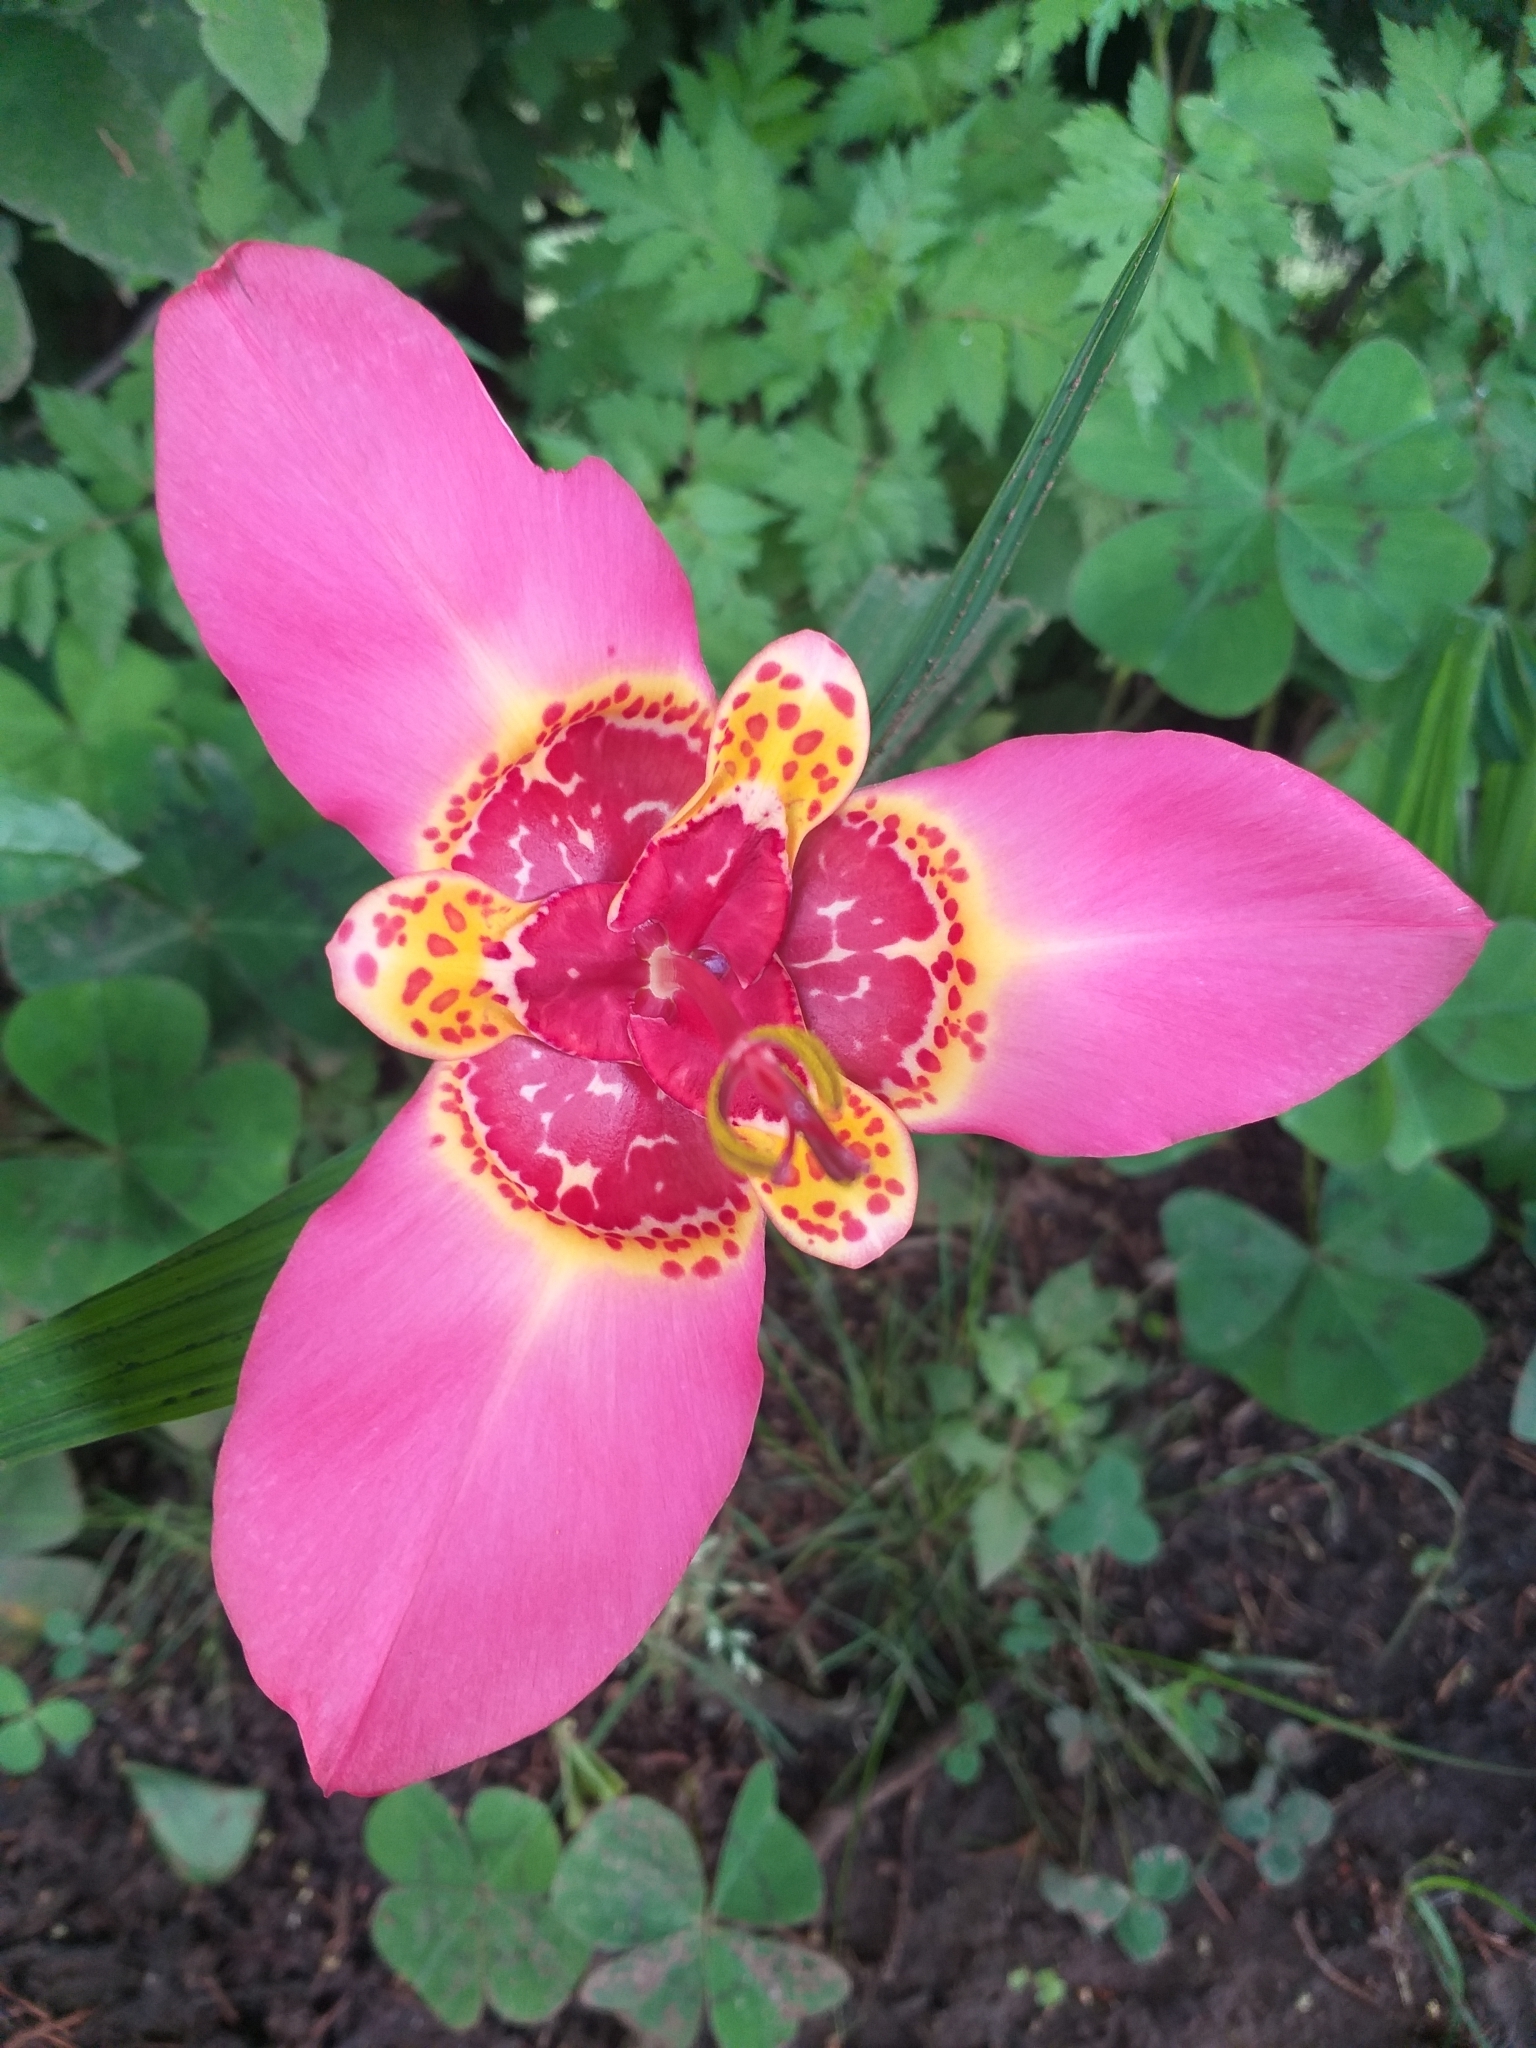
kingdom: Plantae
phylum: Tracheophyta
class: Liliopsida
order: Asparagales
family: Iridaceae
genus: Tigridia
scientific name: Tigridia pavonia
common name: Peacock-flower
